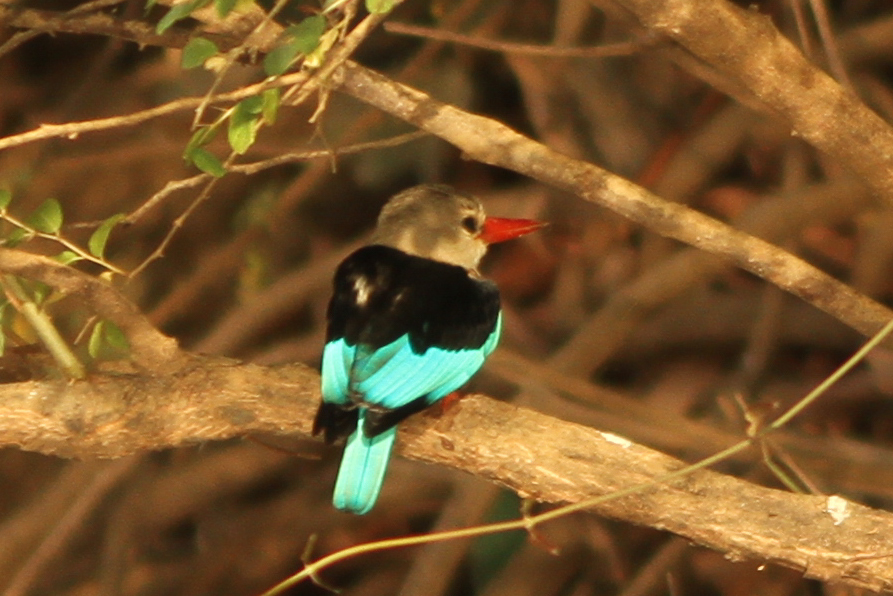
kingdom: Animalia
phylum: Chordata
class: Aves
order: Coraciiformes
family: Alcedinidae
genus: Halcyon
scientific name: Halcyon leucocephala
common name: Grey-headed kingfisher
